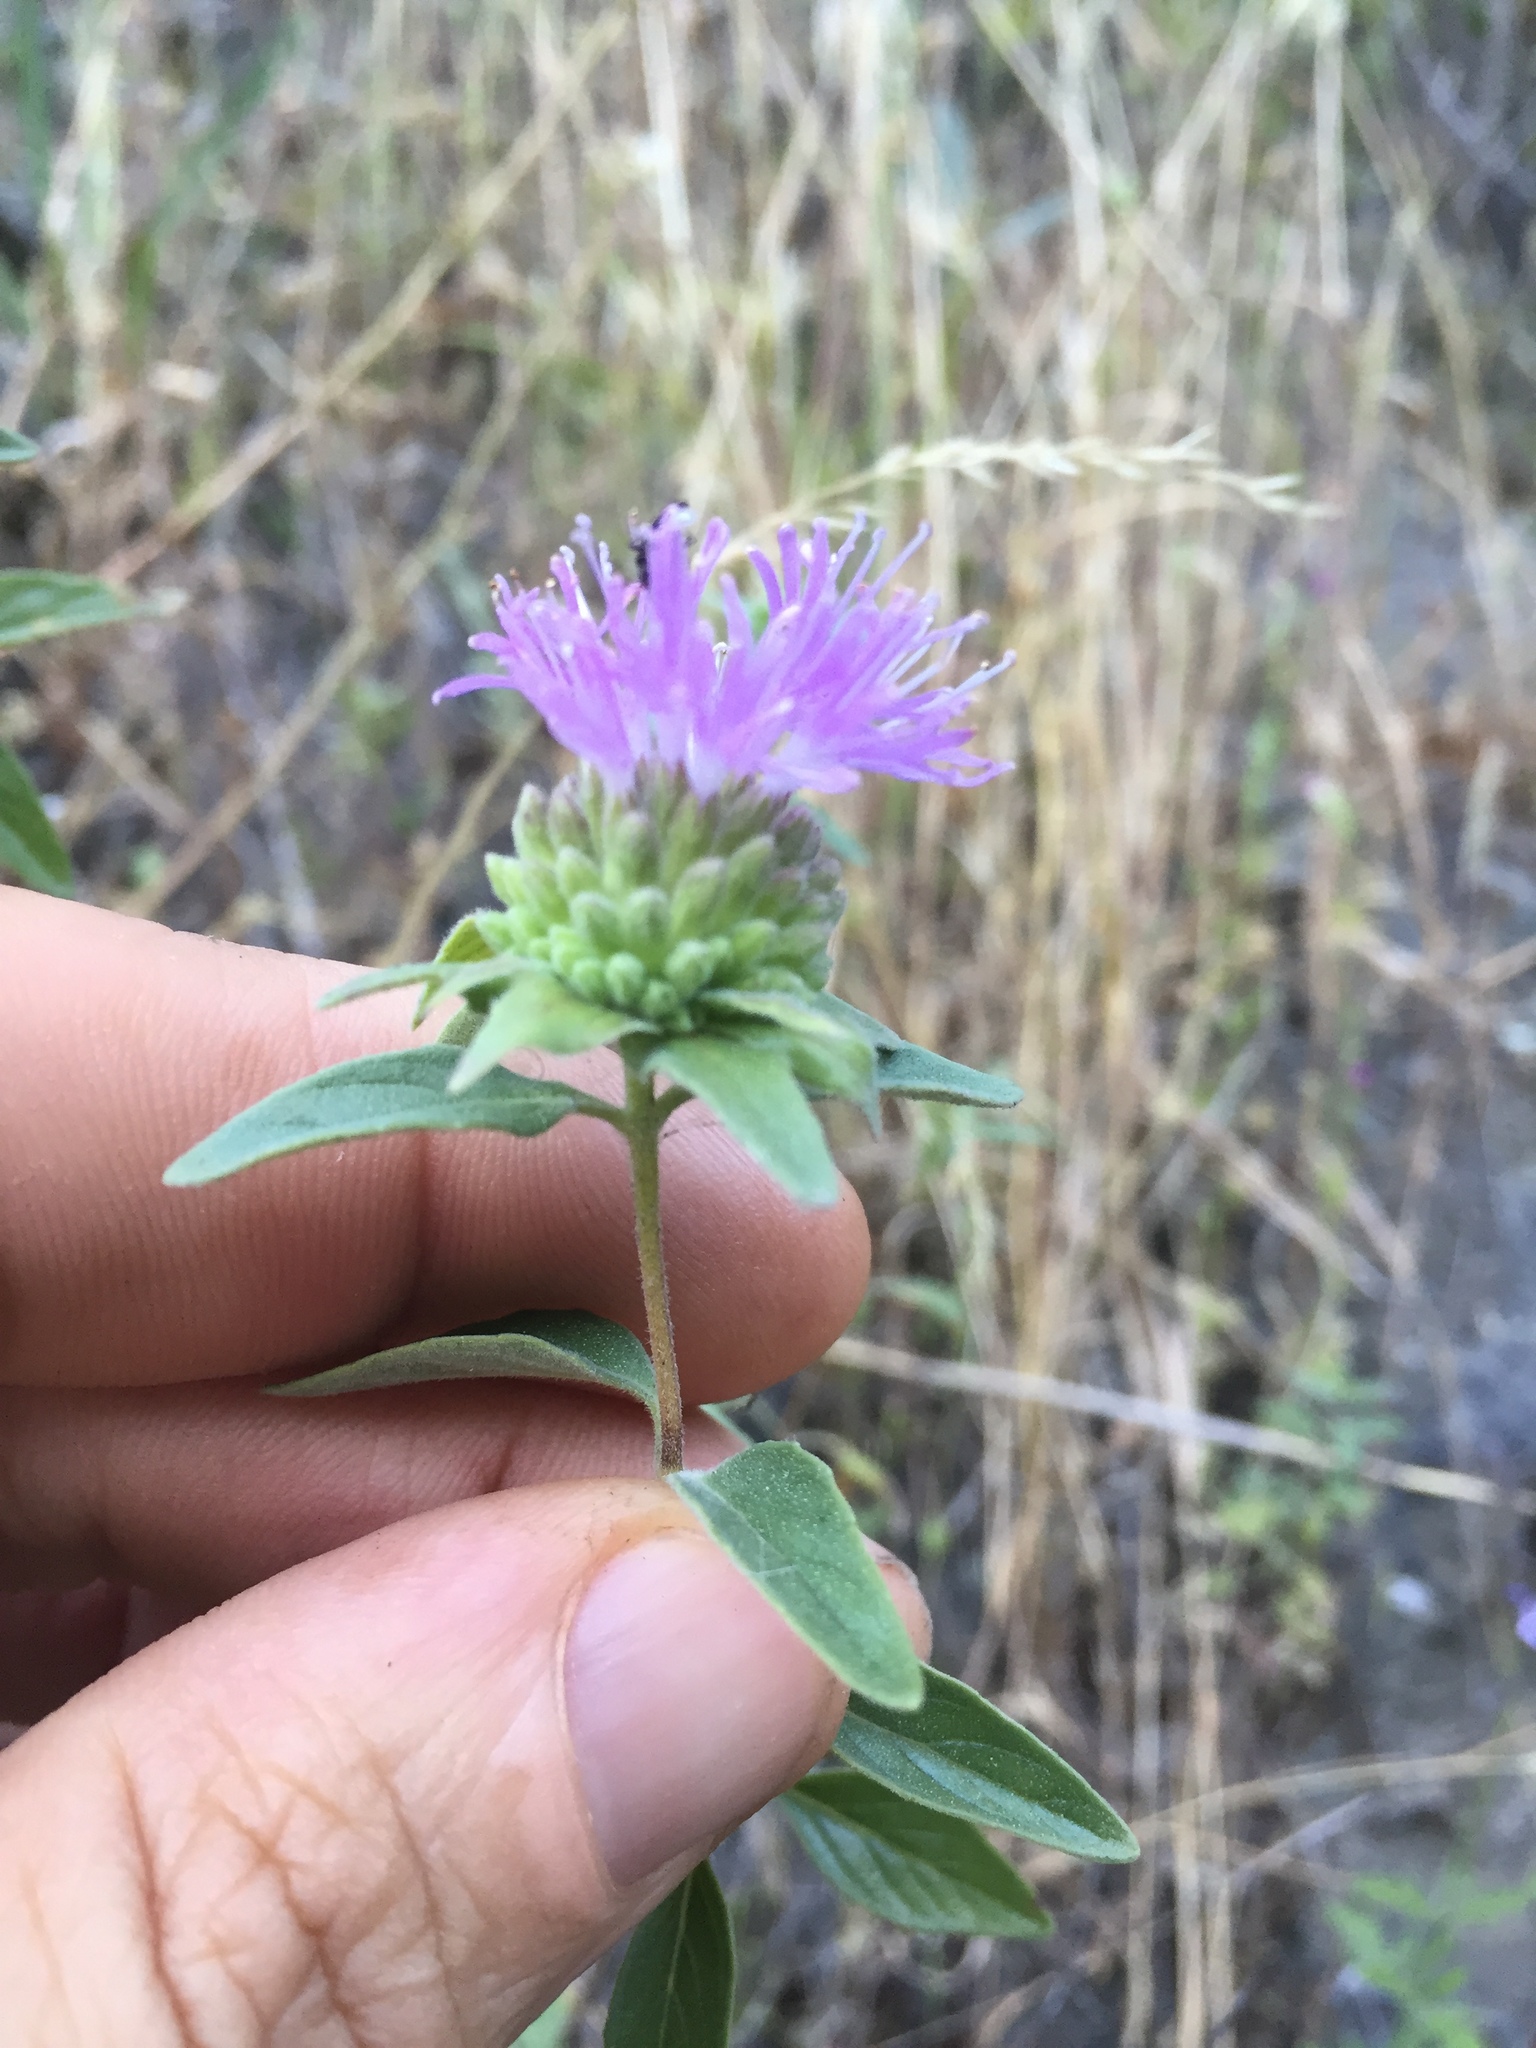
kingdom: Plantae
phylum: Tracheophyta
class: Magnoliopsida
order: Lamiales
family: Lamiaceae
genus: Monardella
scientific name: Monardella odoratissima
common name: Pacific monardella
